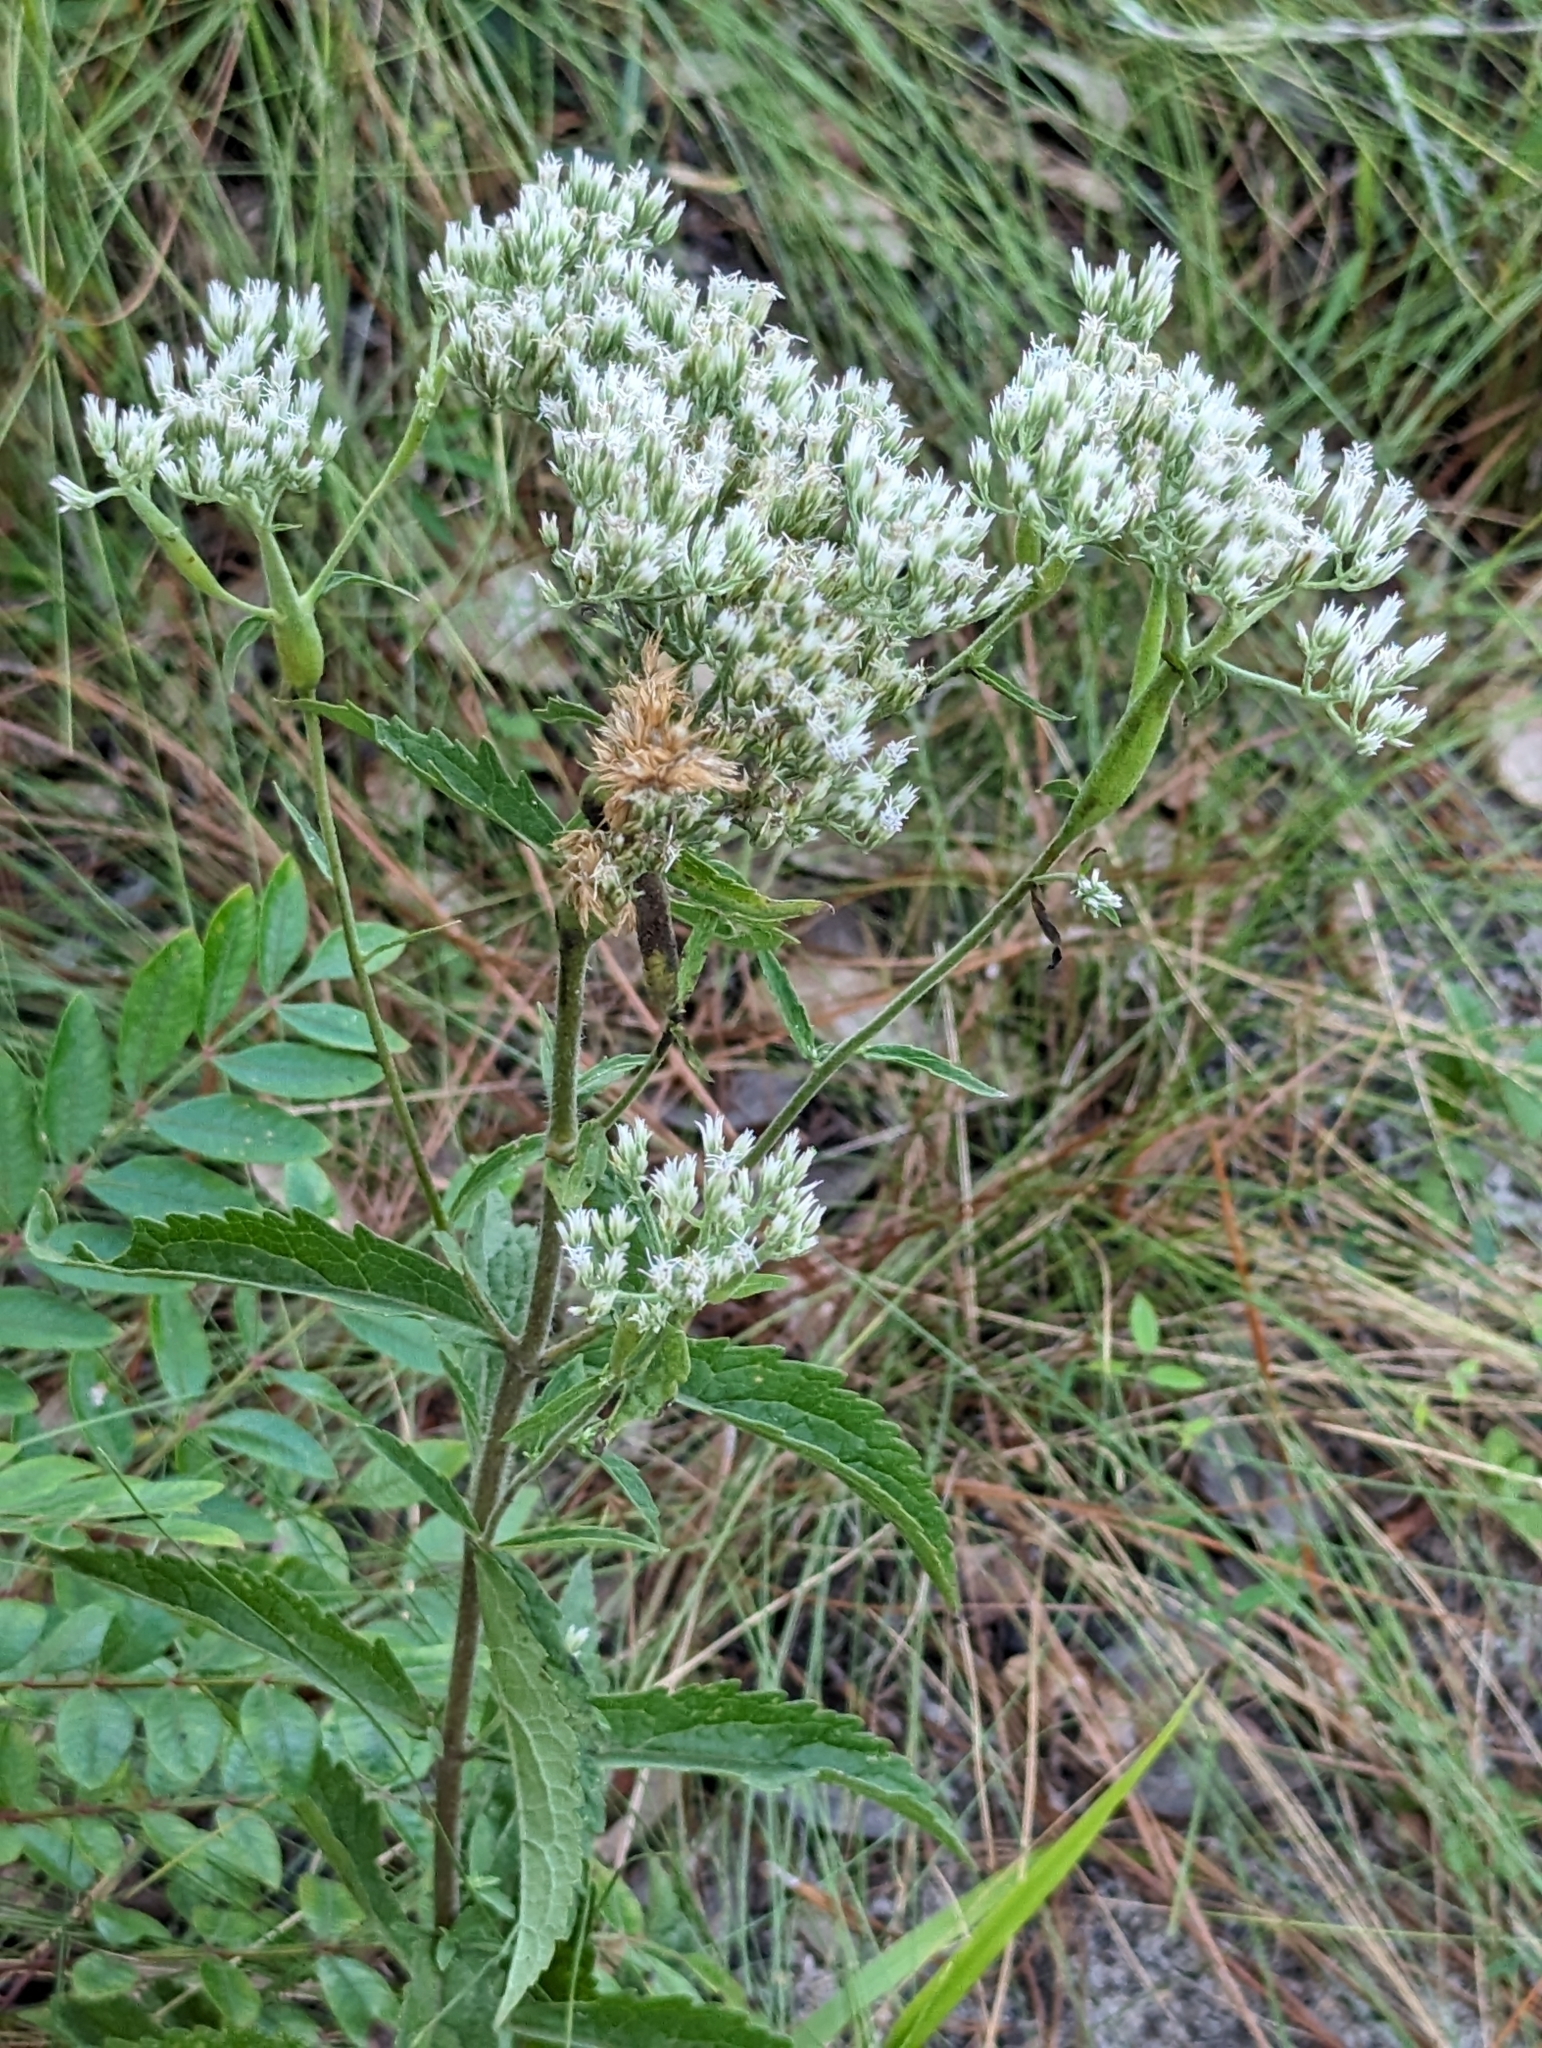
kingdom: Plantae
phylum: Tracheophyta
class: Magnoliopsida
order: Asterales
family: Asteraceae
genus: Eupatorium
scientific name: Eupatorium album
